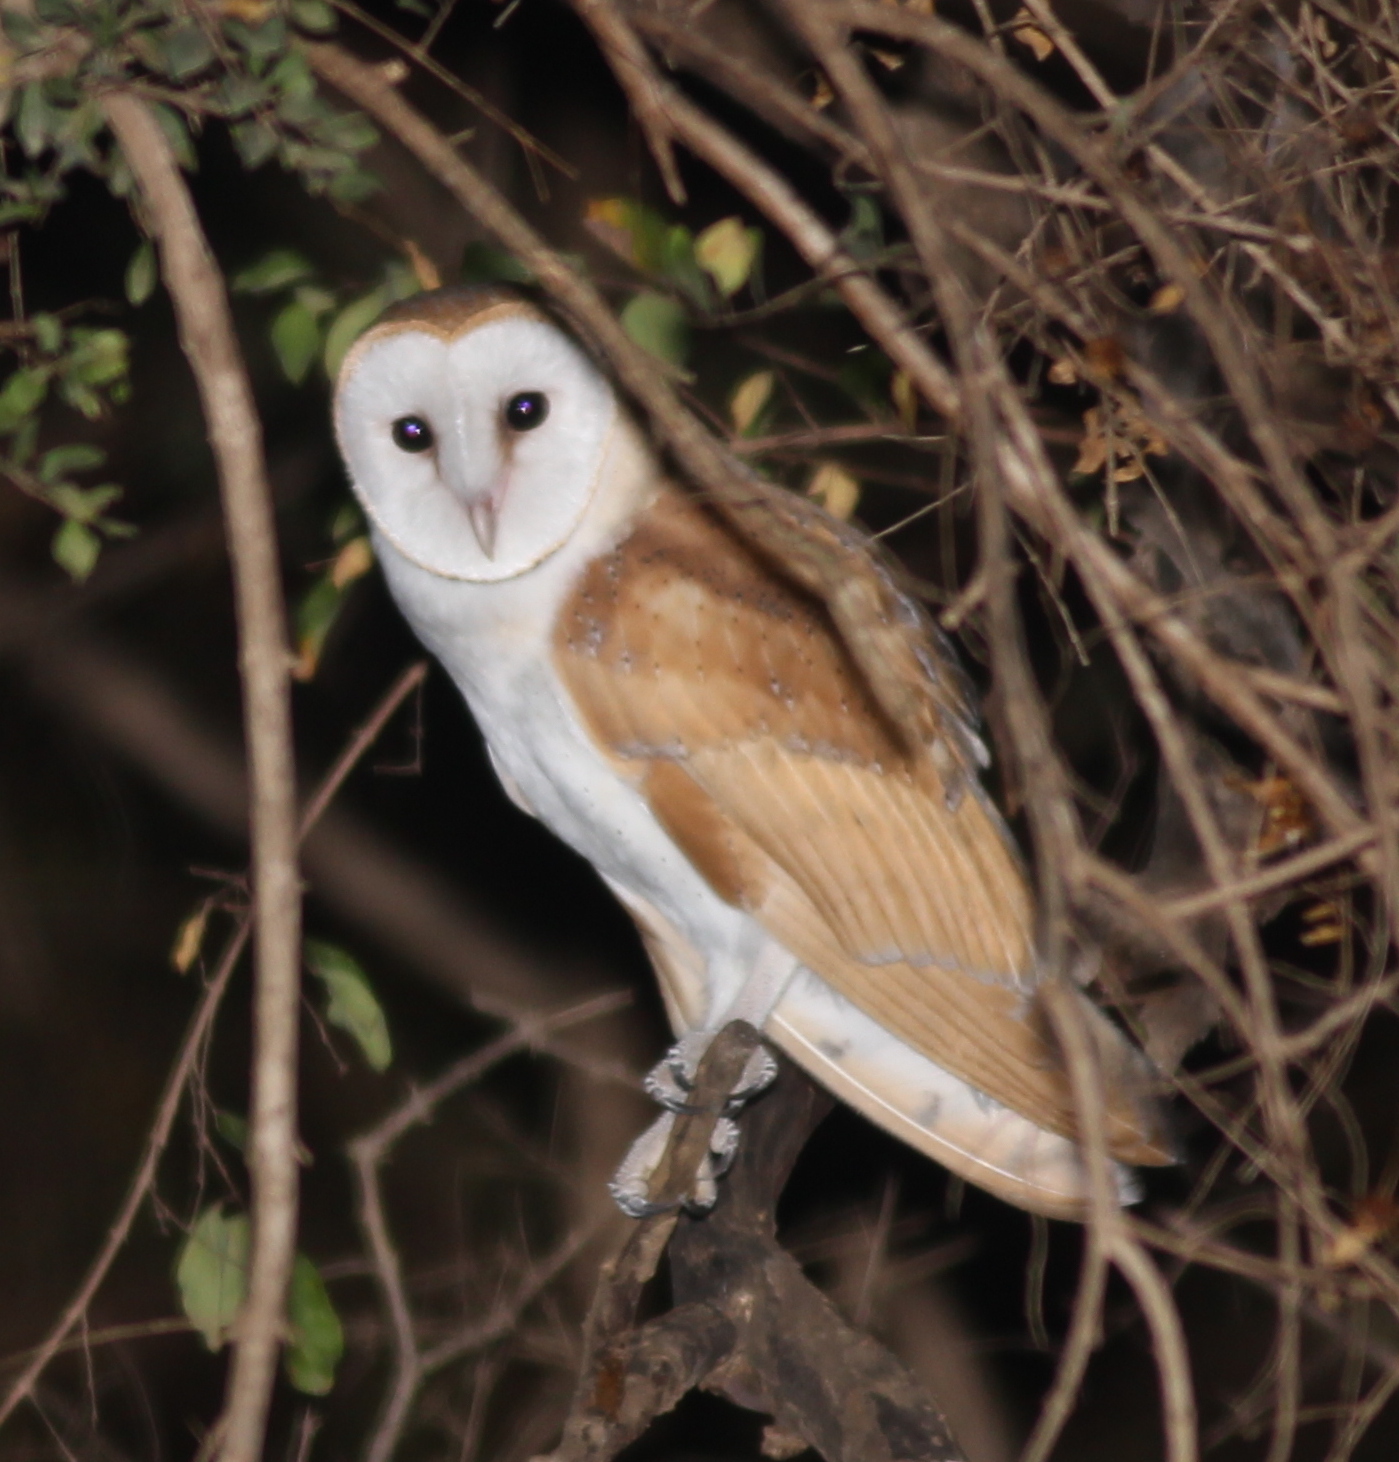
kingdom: Animalia
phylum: Chordata
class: Aves
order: Strigiformes
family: Tytonidae
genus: Tyto
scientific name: Tyto alba
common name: Barn owl
